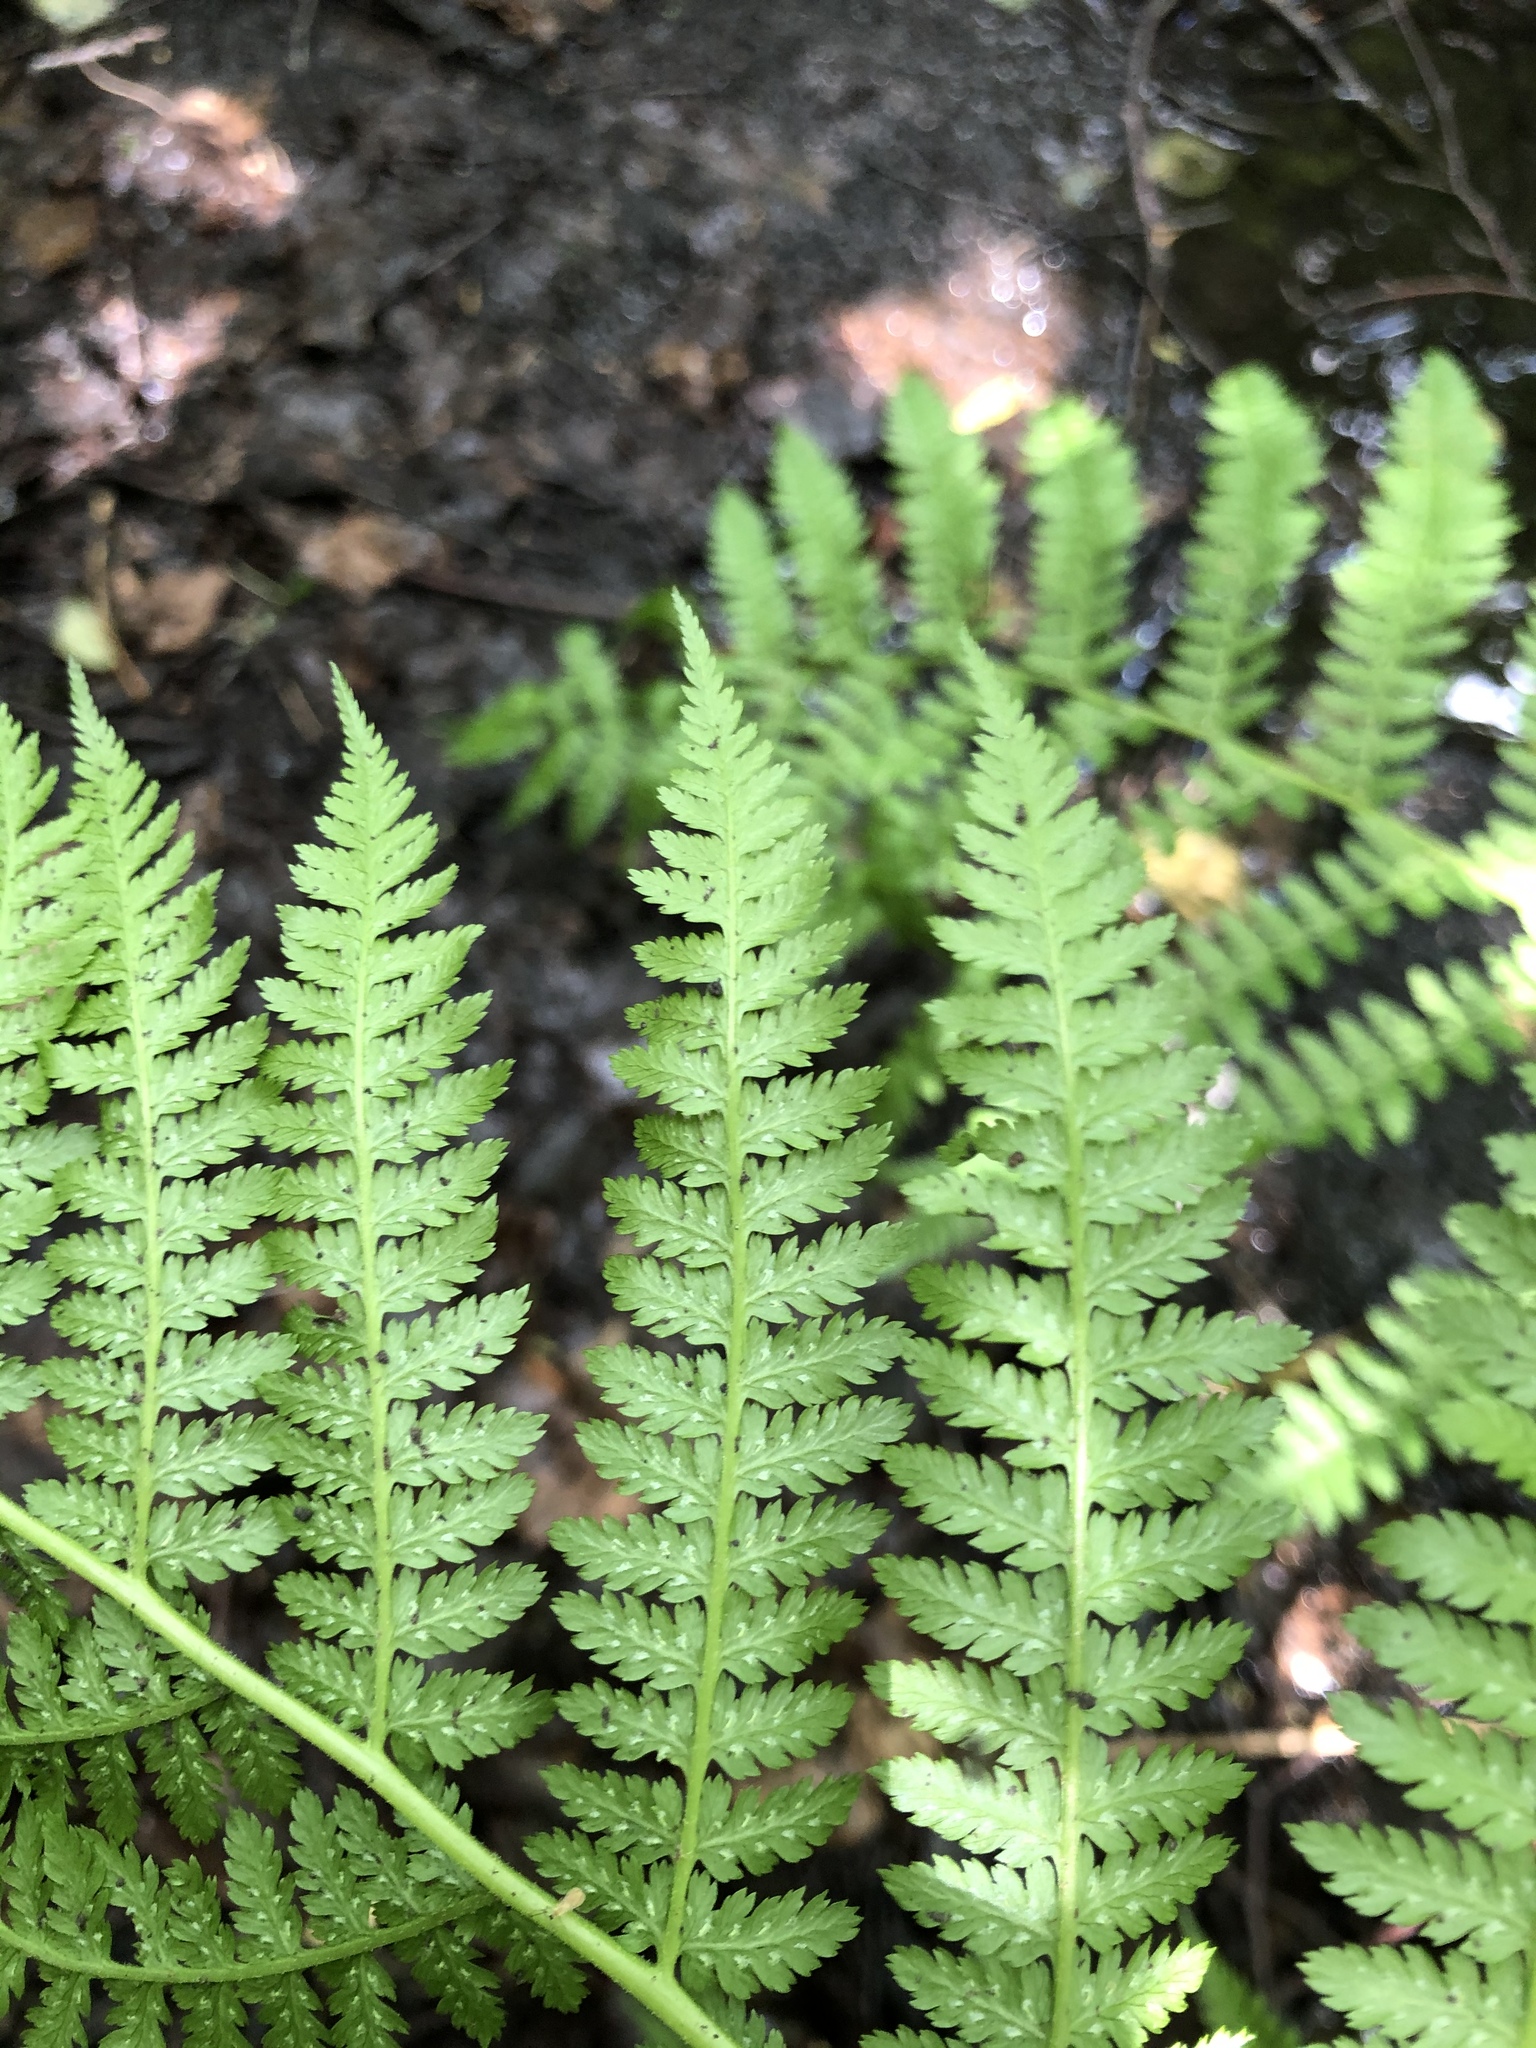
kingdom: Plantae
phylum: Tracheophyta
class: Polypodiopsida
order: Polypodiales
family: Athyriaceae
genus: Athyrium
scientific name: Athyrium filix-femina
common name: Lady fern
